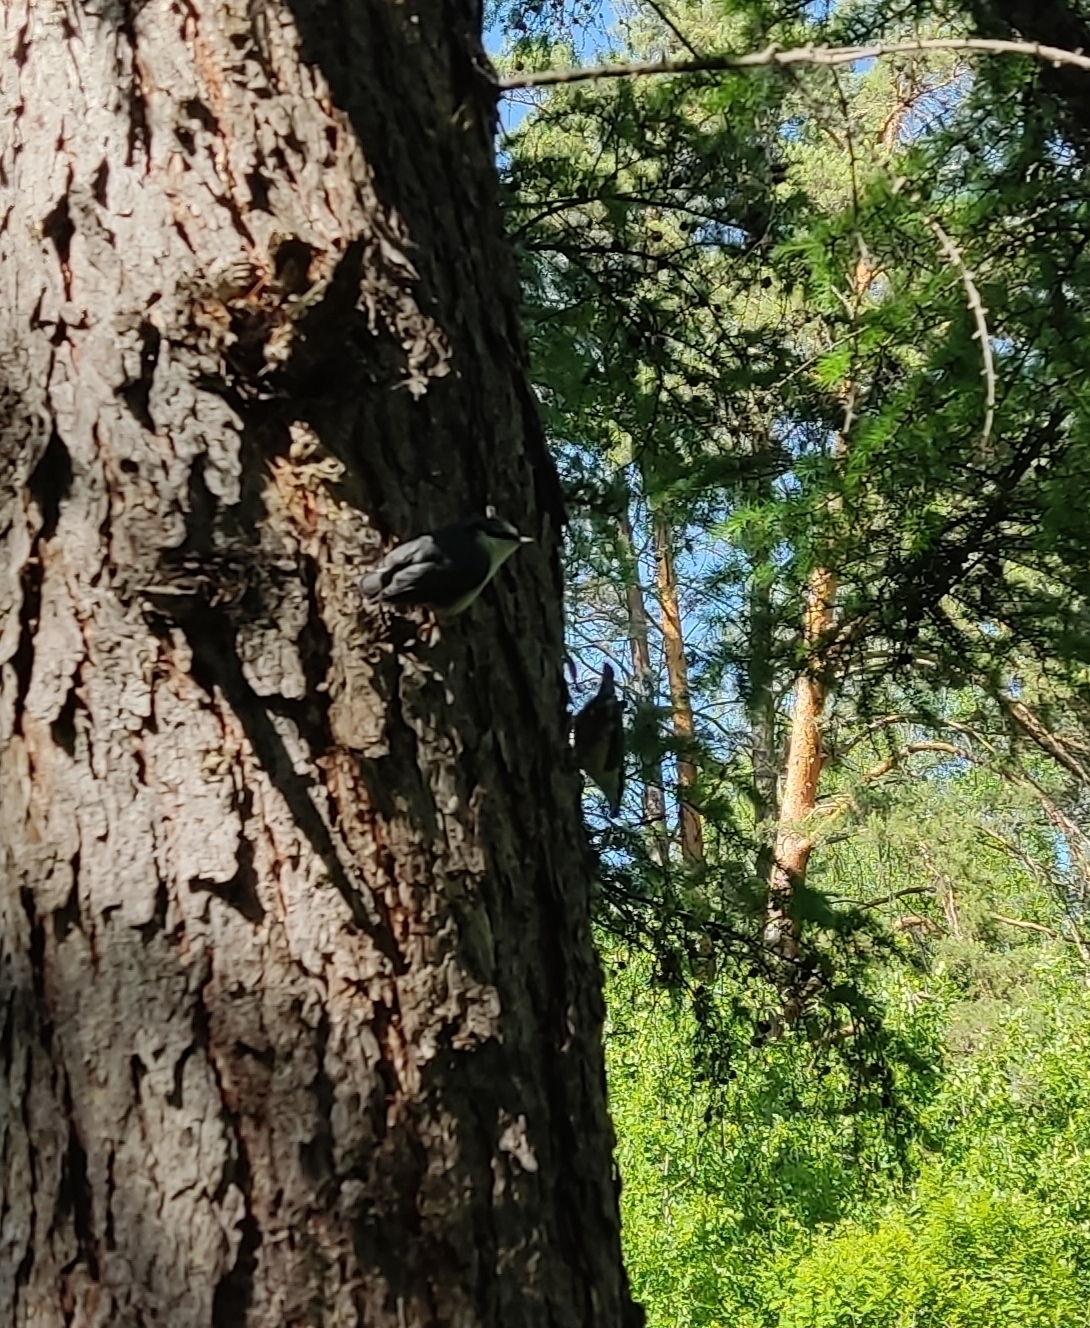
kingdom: Animalia
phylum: Chordata
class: Aves
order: Passeriformes
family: Sittidae
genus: Sitta
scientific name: Sitta europaea
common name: Eurasian nuthatch
